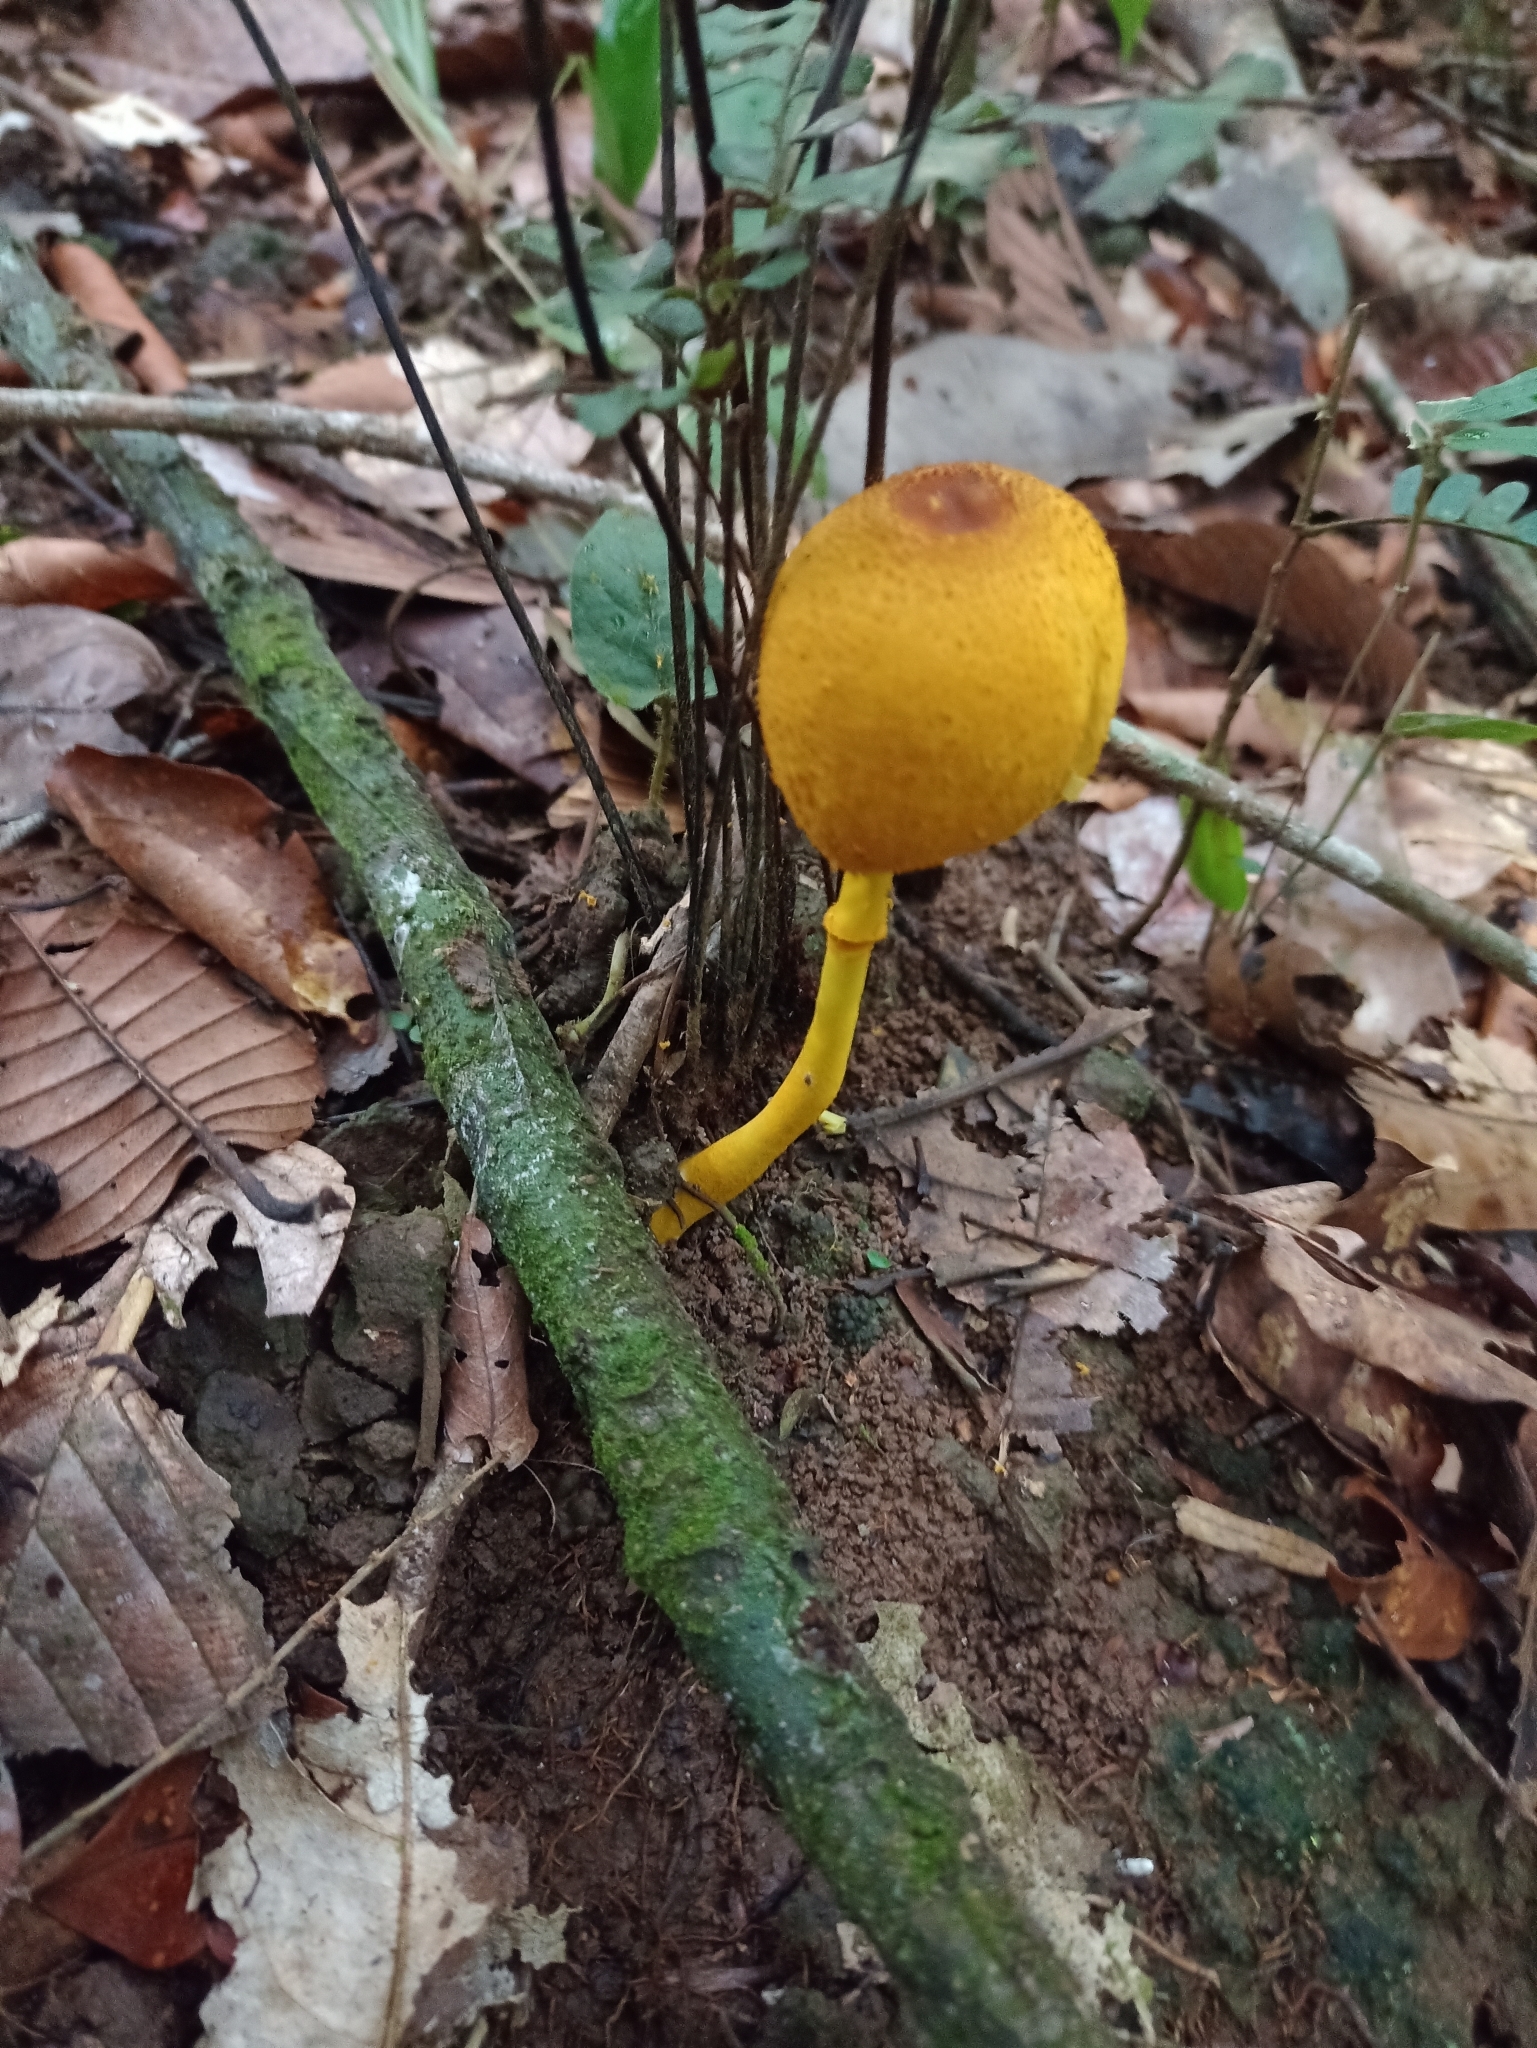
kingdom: Fungi
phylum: Basidiomycota
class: Agaricomycetes
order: Agaricales
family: Agaricaceae
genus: Leucocoprinus
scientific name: Leucocoprinus brunneoluteus
